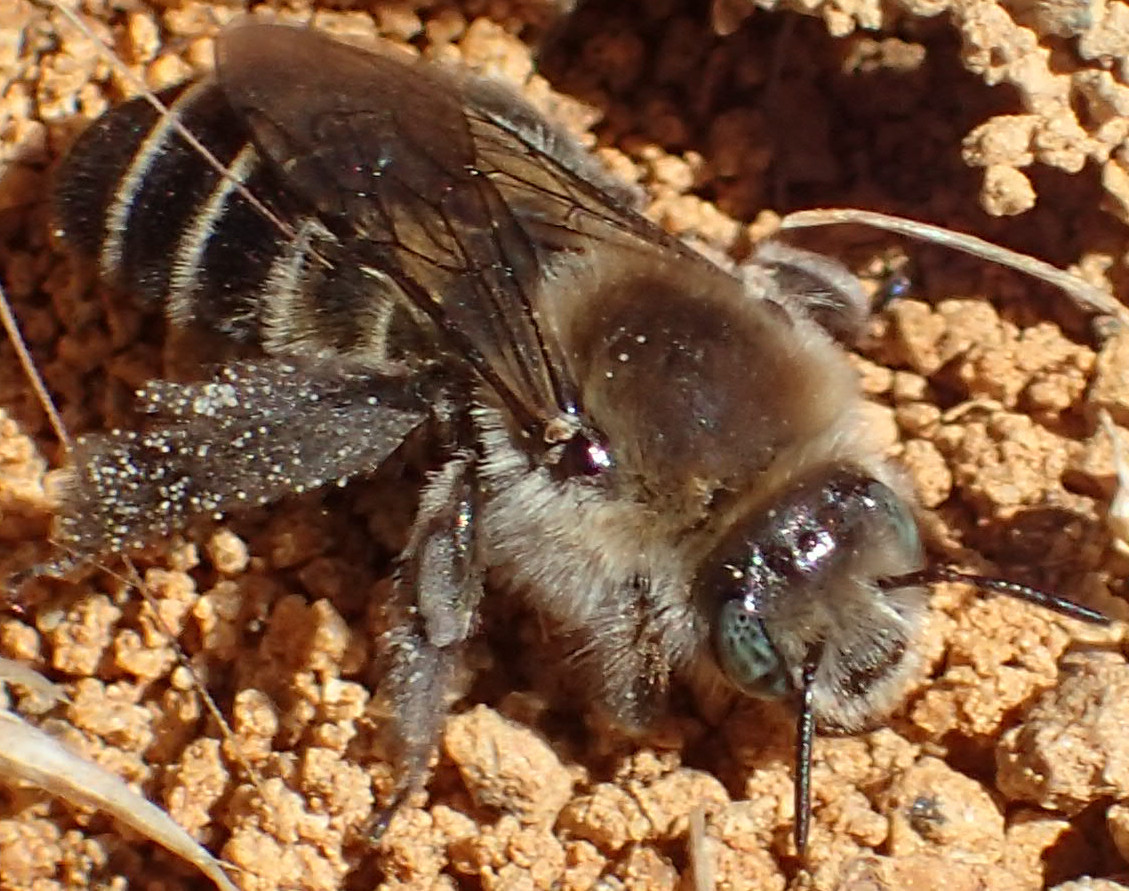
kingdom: Animalia
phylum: Arthropoda
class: Insecta
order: Hymenoptera
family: Apidae
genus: Diadasia
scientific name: Diadasia bituberculata
